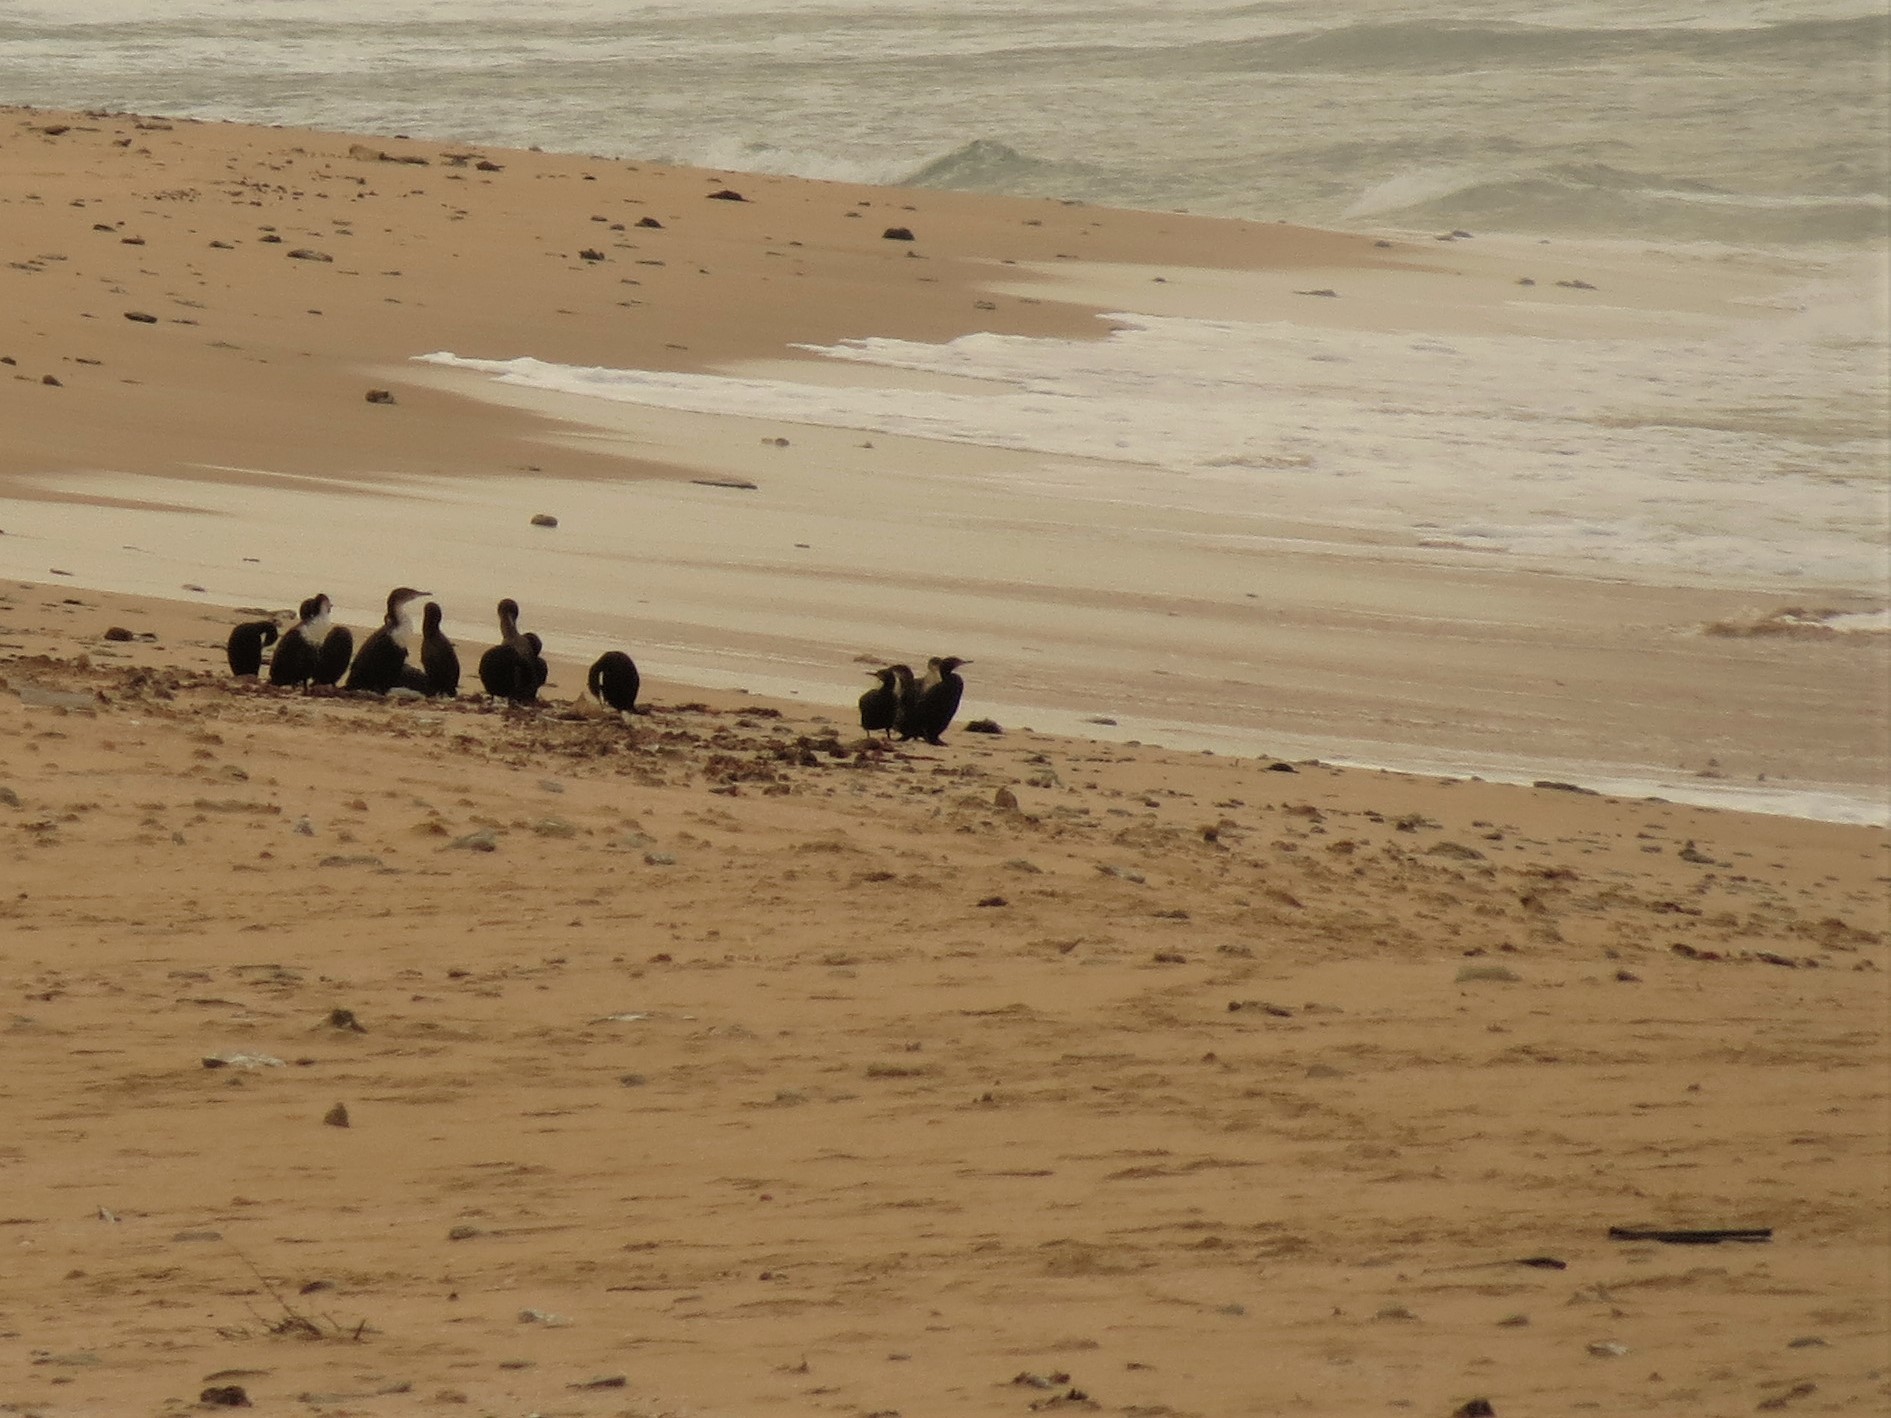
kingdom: Animalia
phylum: Chordata
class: Aves
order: Suliformes
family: Phalacrocoracidae
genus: Phalacrocorax
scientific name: Phalacrocorax capensis
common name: Cape cormorant
